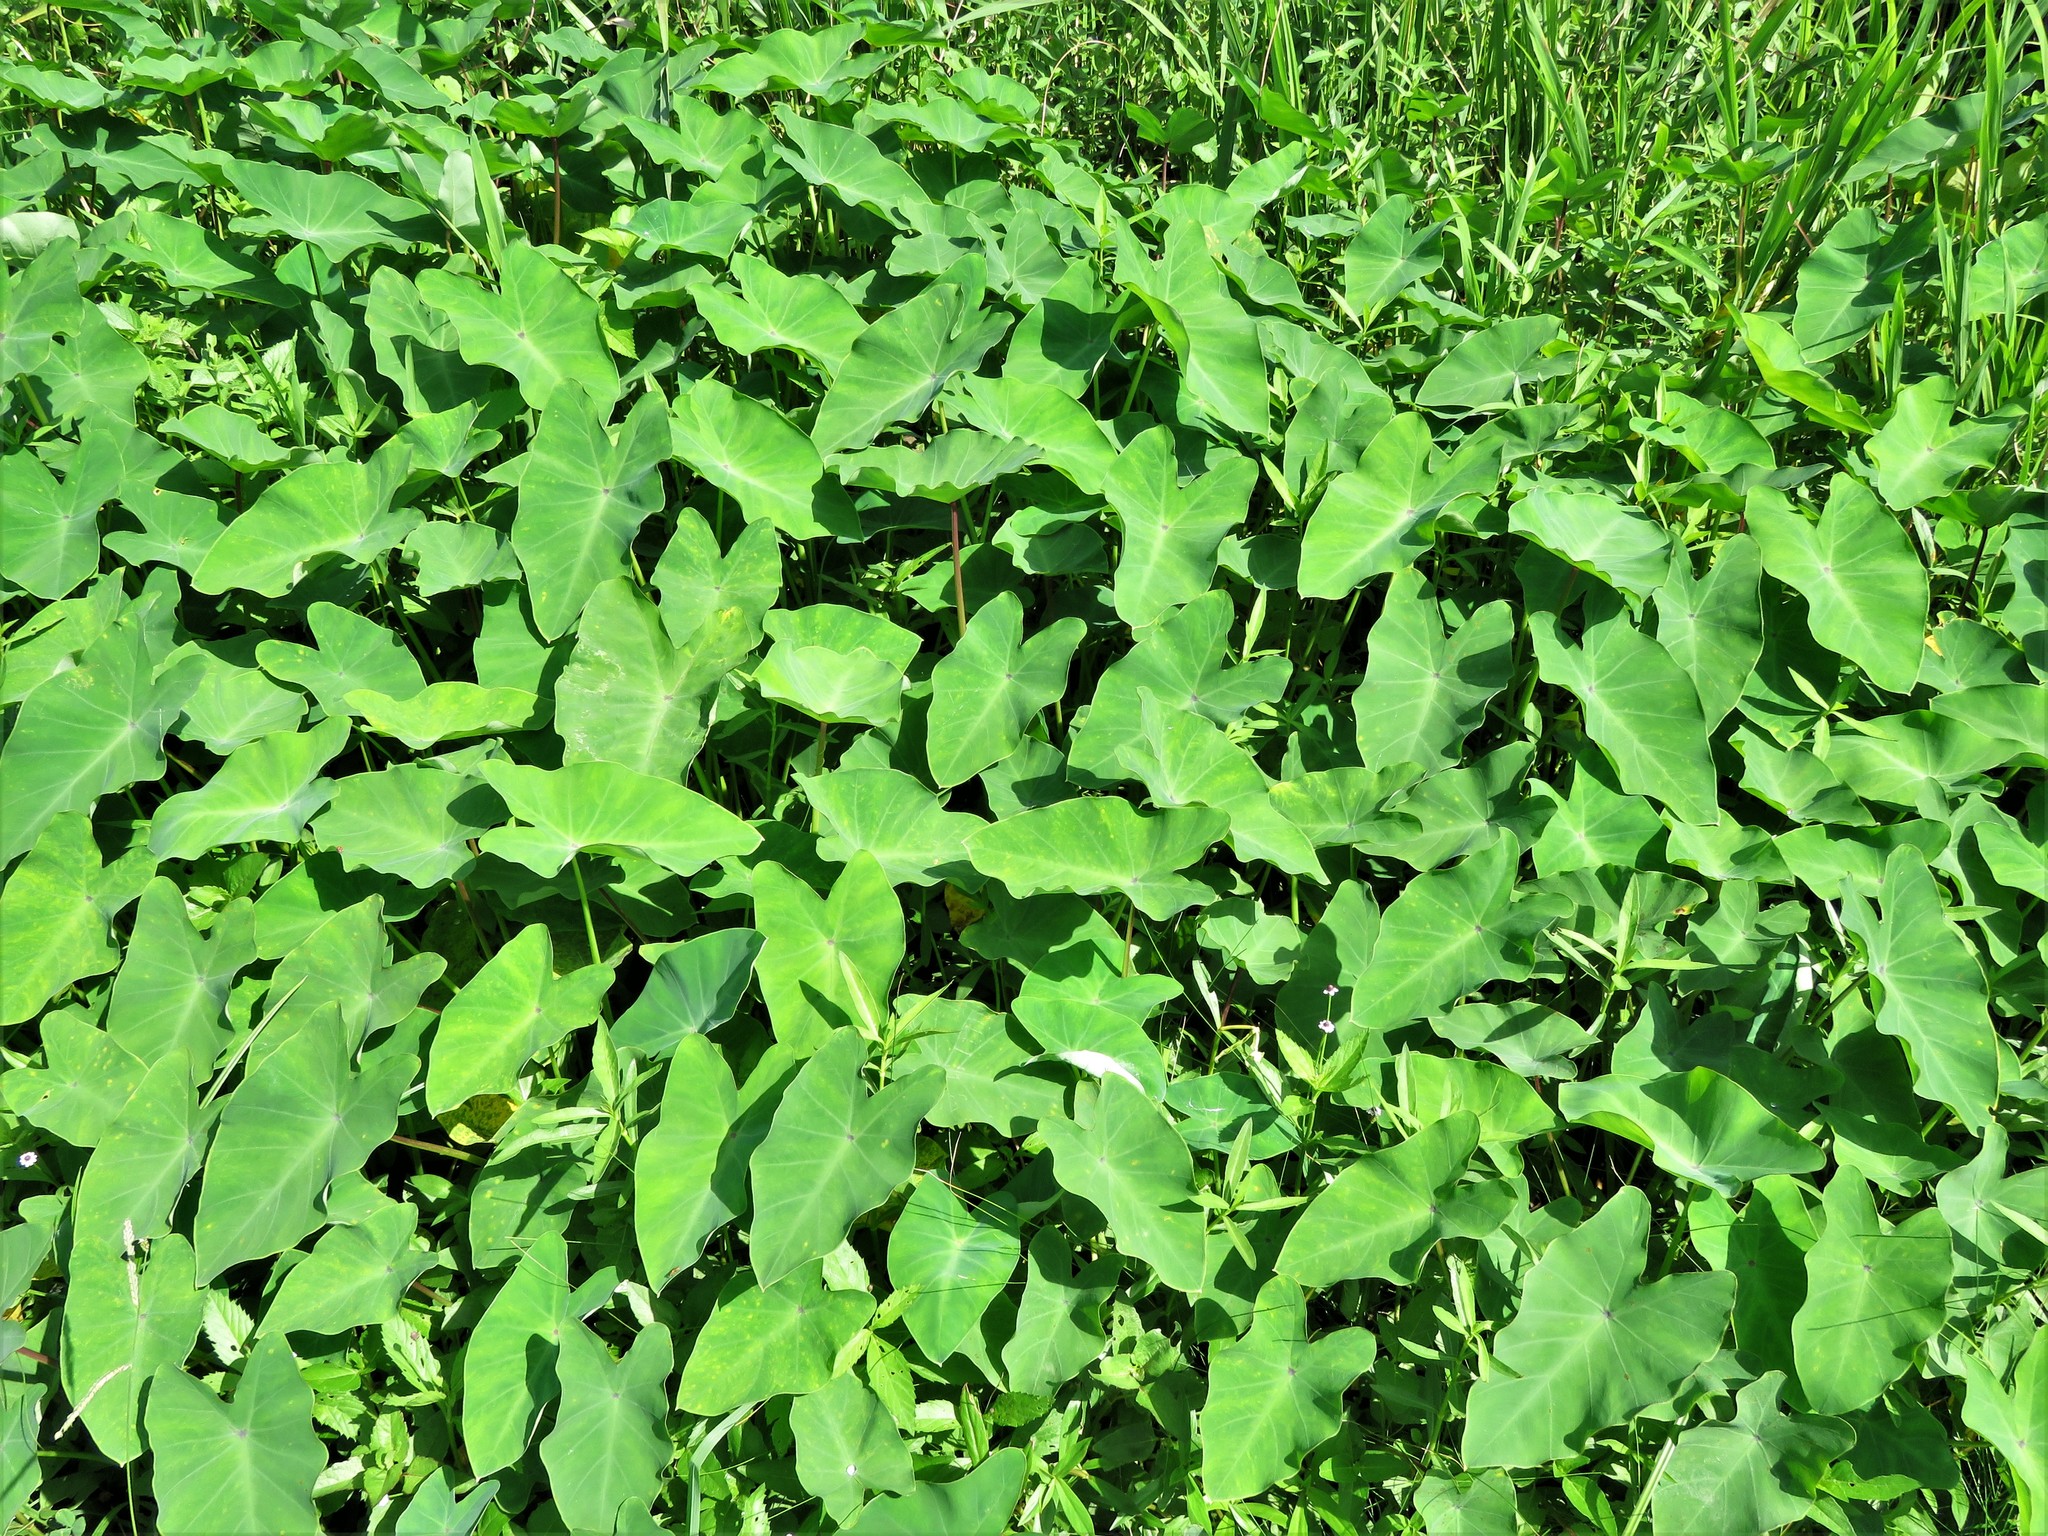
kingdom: Plantae
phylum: Tracheophyta
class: Liliopsida
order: Alismatales
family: Araceae
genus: Colocasia
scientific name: Colocasia esculenta
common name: Taro
